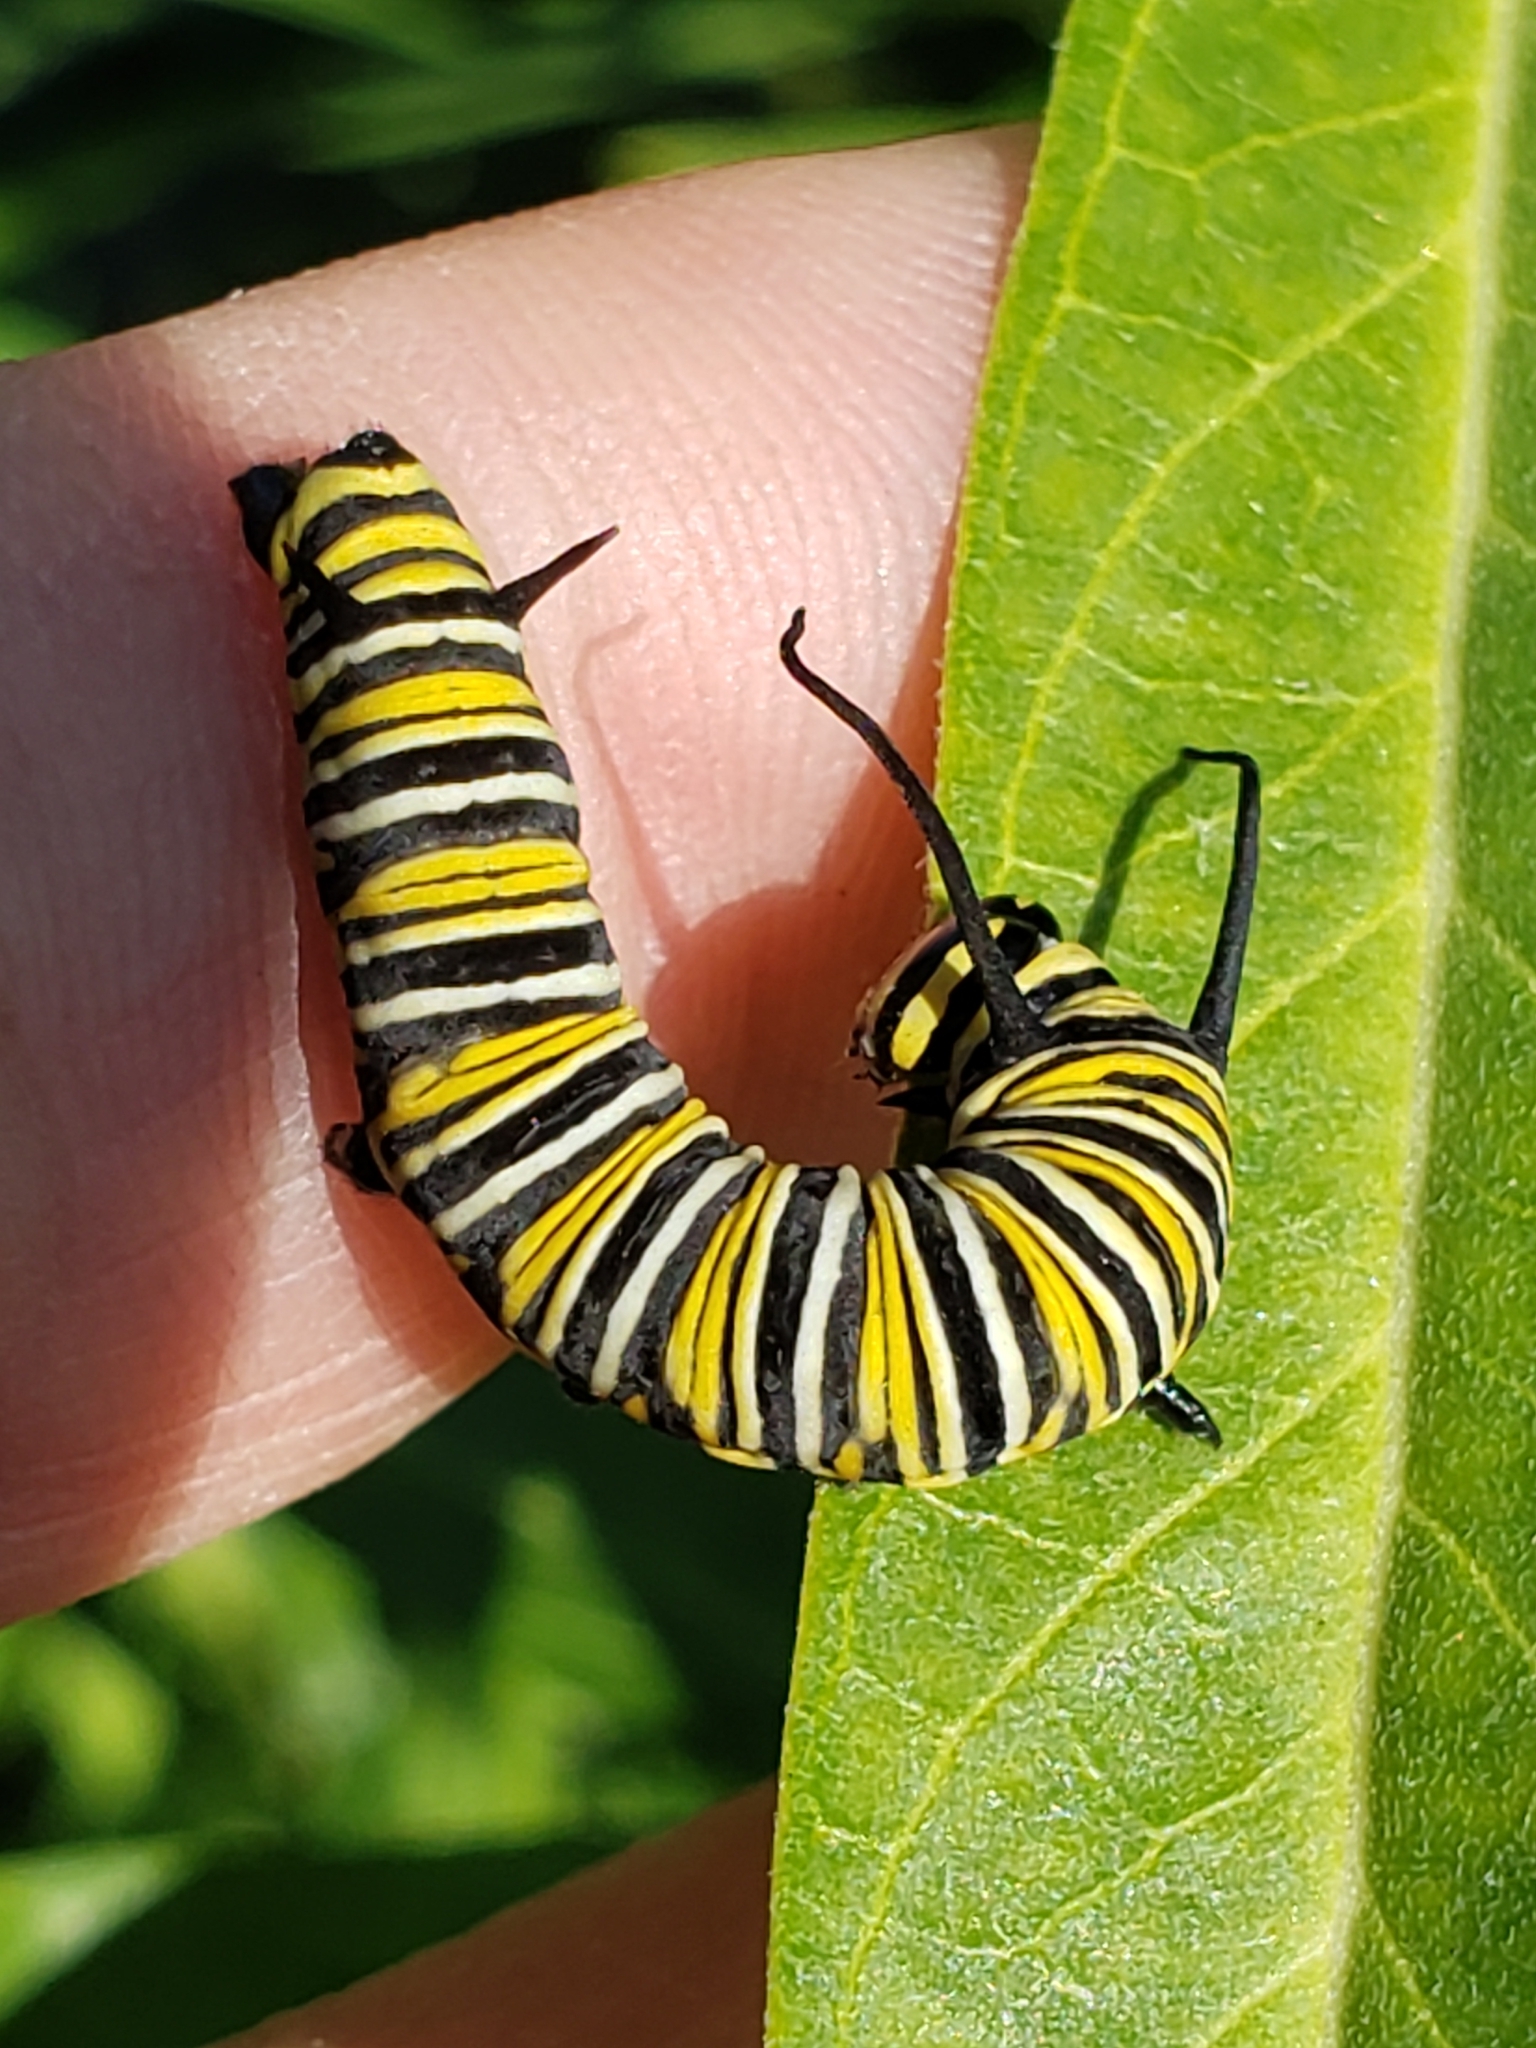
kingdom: Animalia
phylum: Arthropoda
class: Insecta
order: Lepidoptera
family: Nymphalidae
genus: Danaus
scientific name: Danaus plexippus
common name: Monarch
